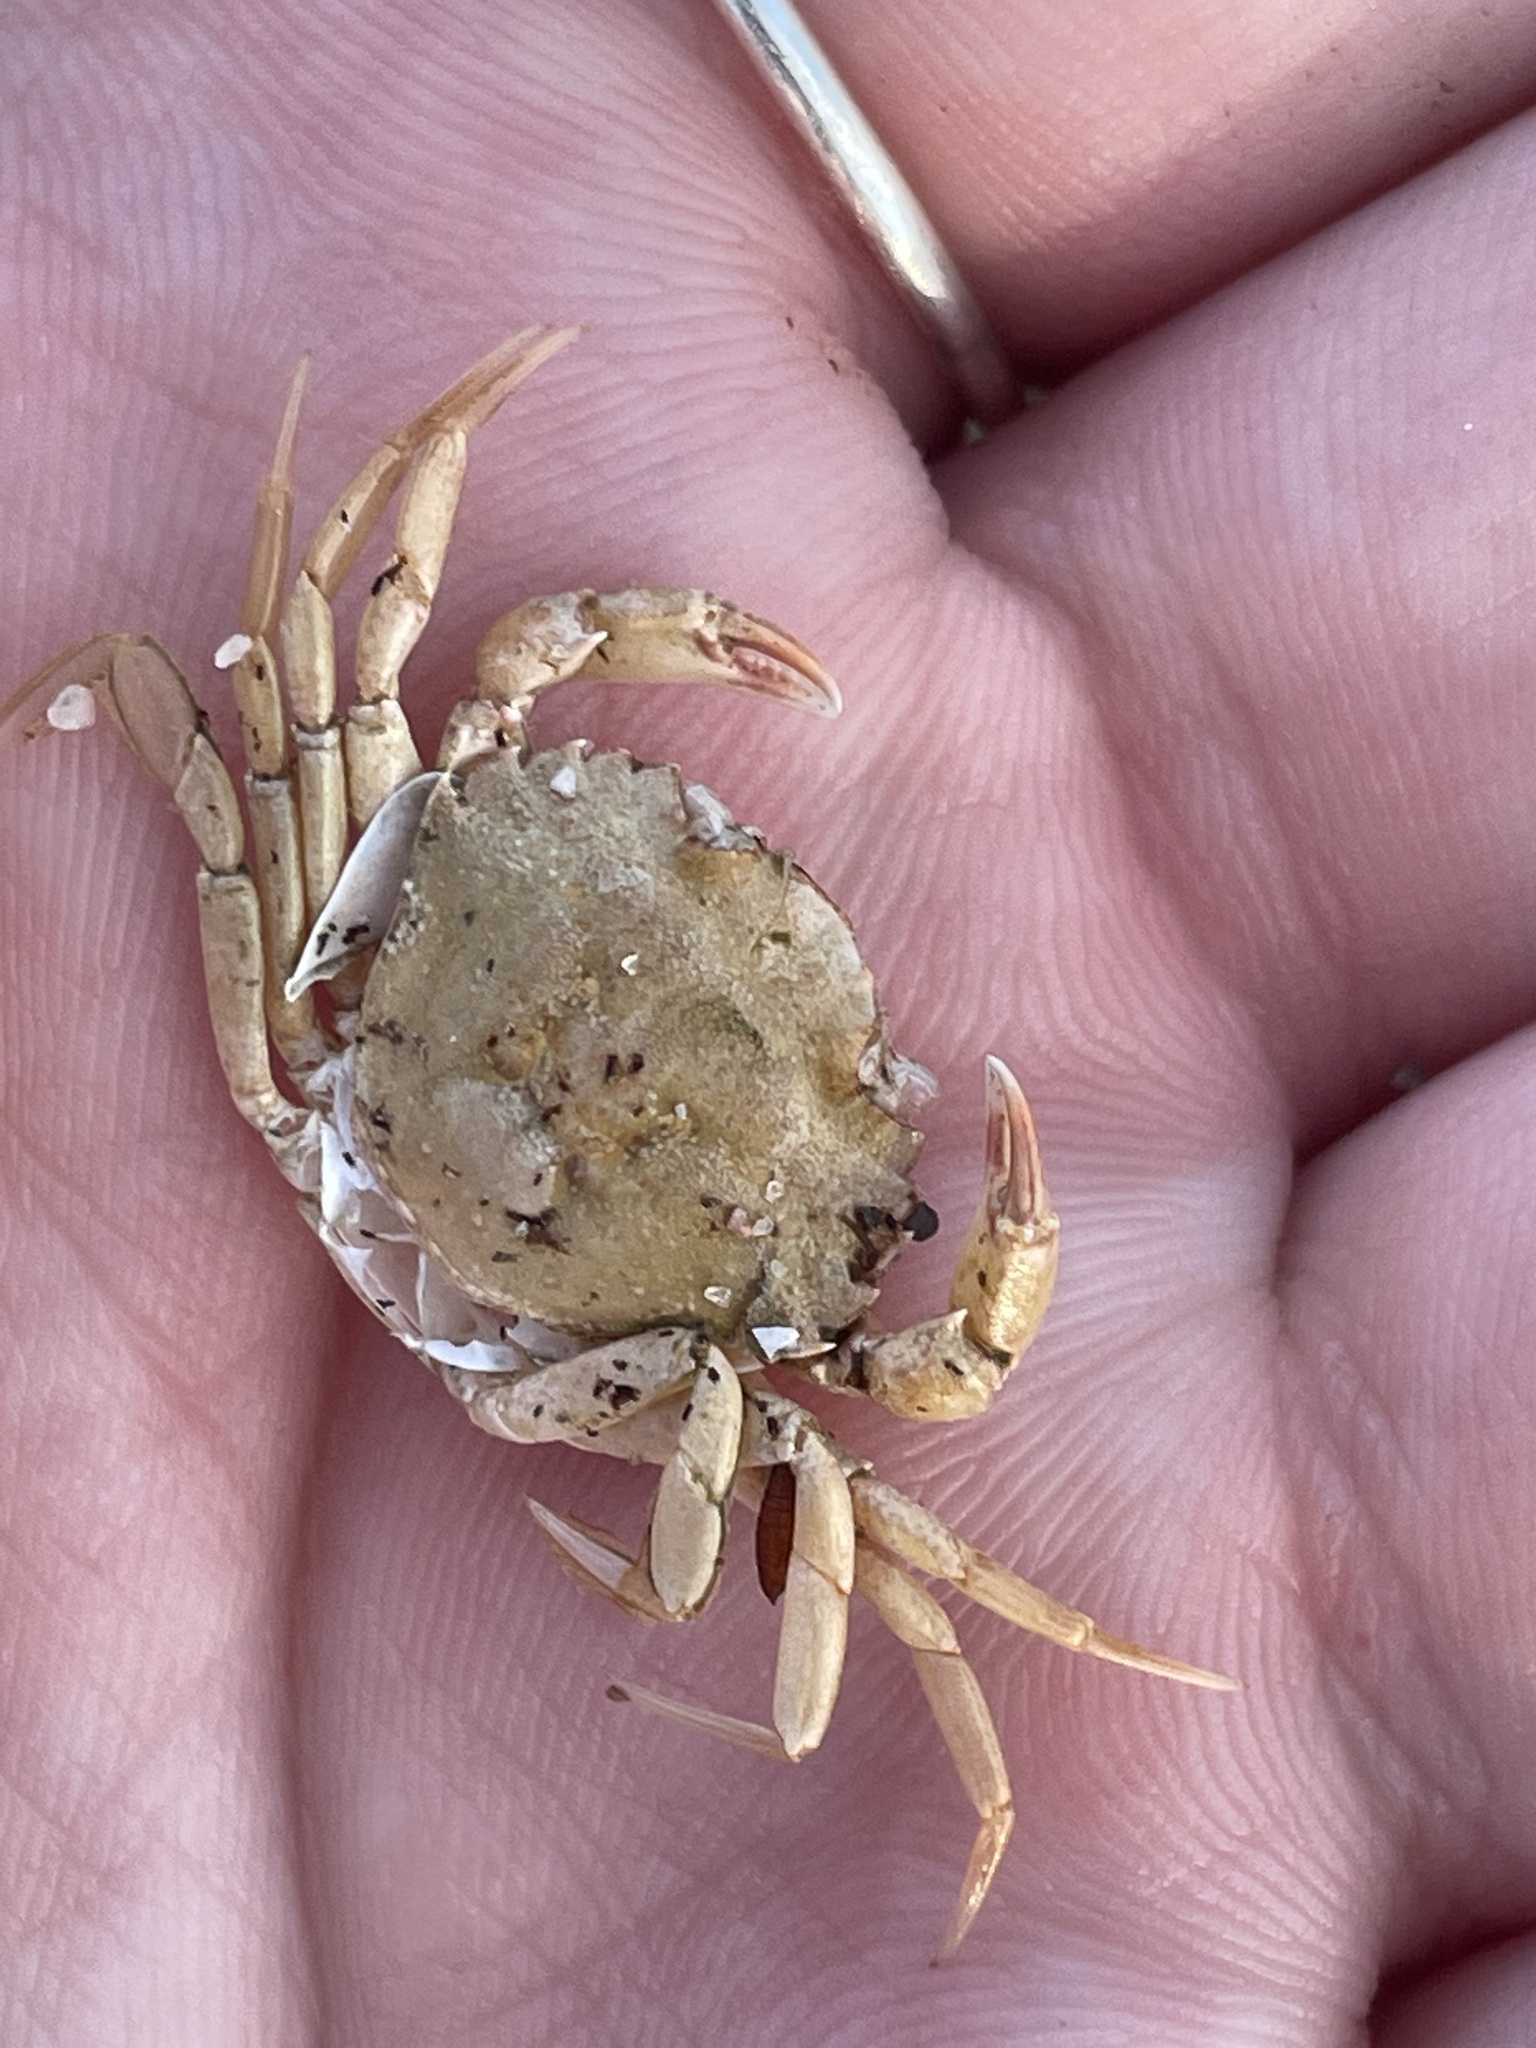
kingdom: Animalia
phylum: Arthropoda
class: Malacostraca
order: Decapoda
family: Carcinidae
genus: Carcinus
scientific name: Carcinus maenas
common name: European green crab
